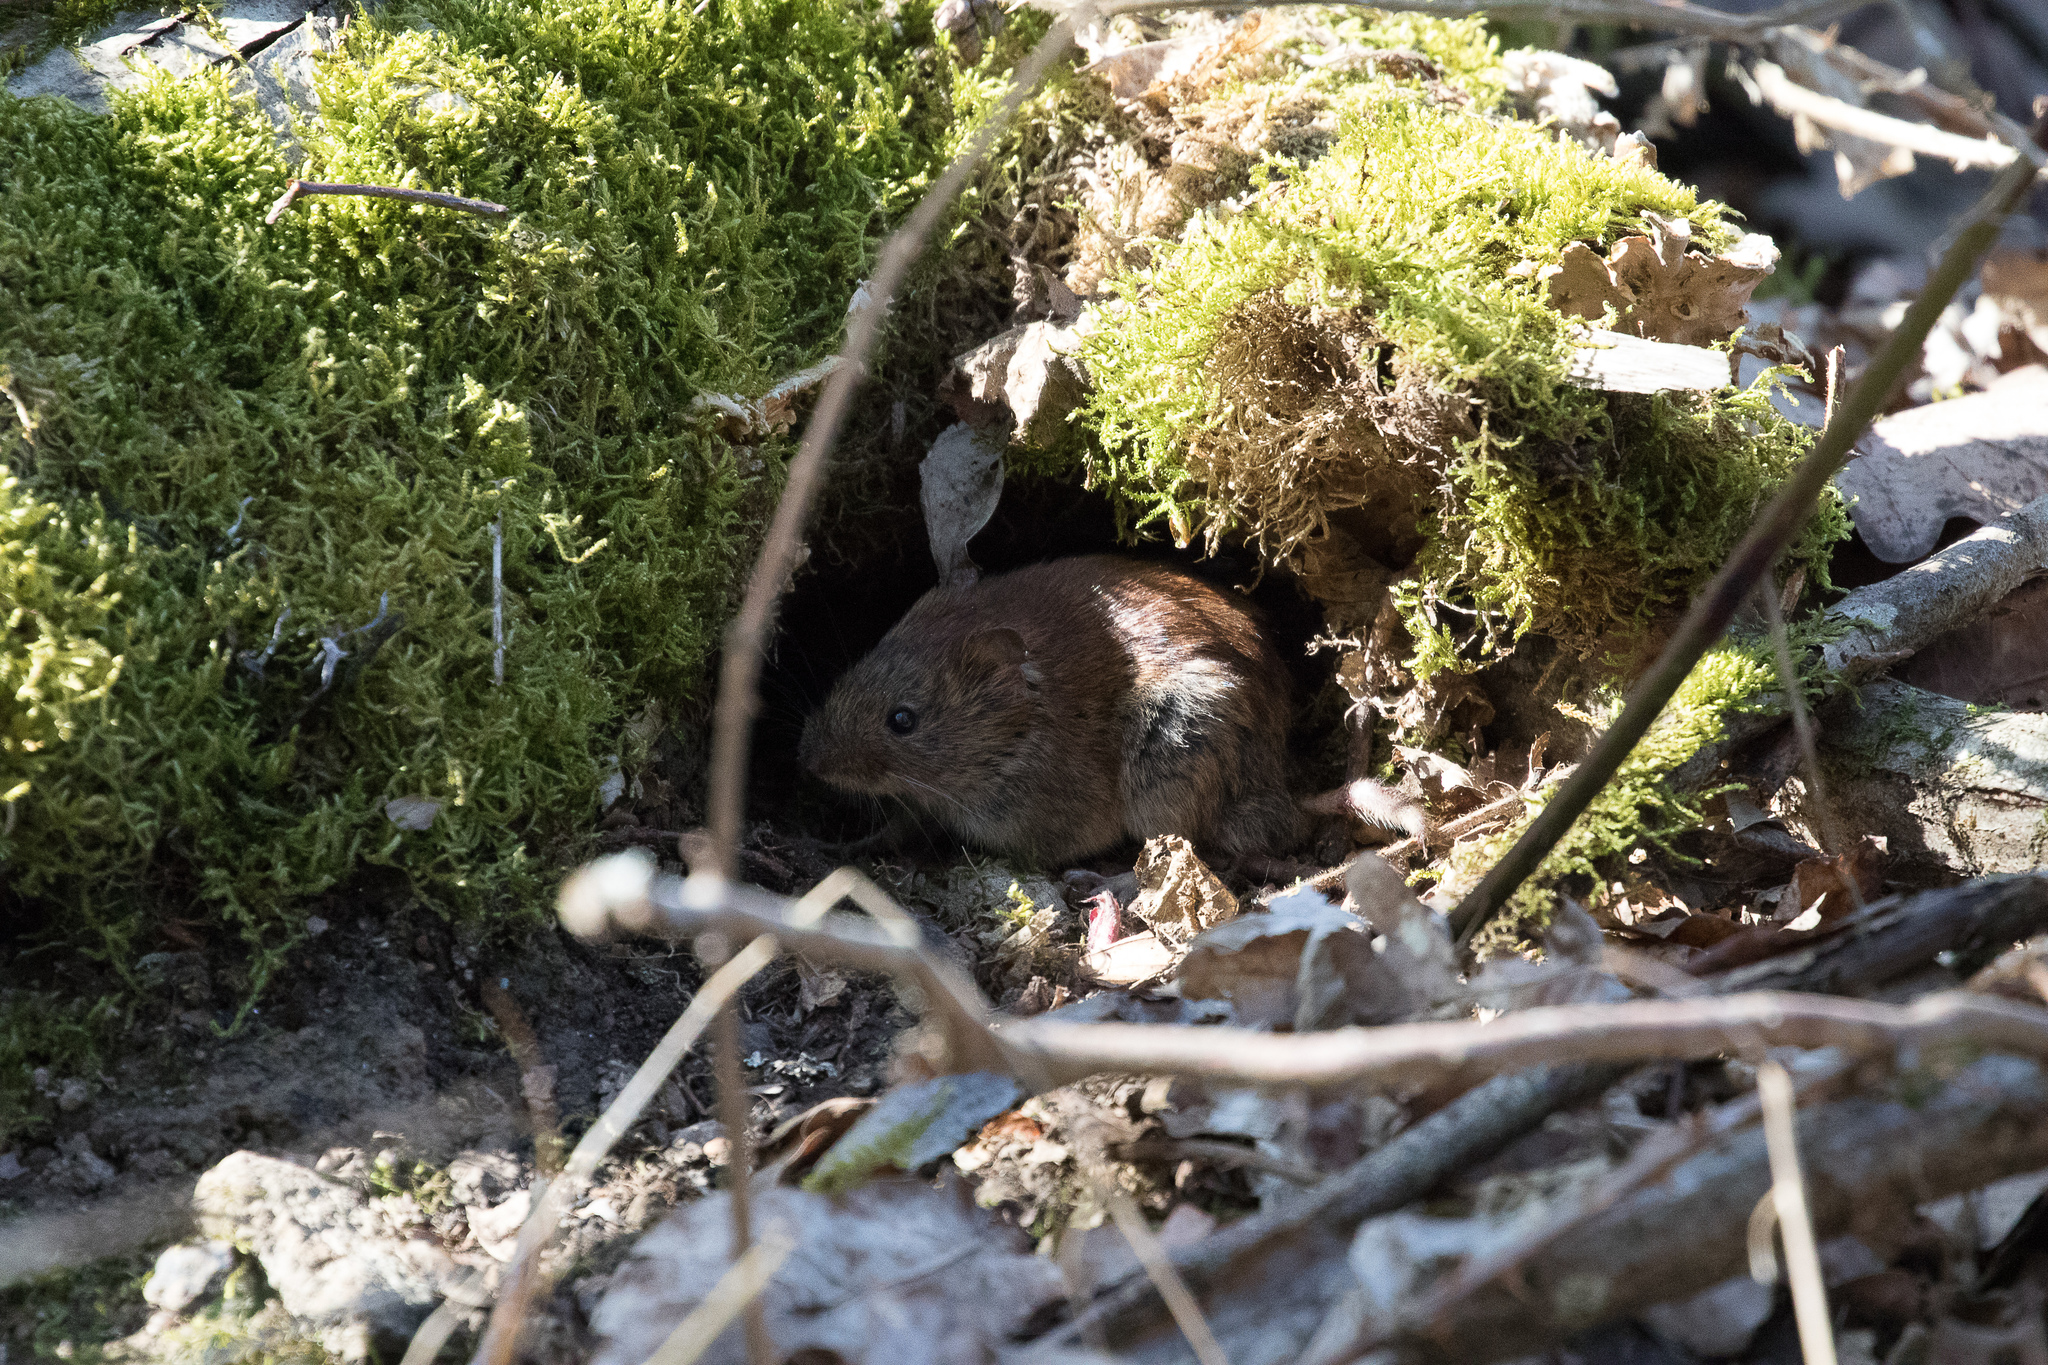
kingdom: Animalia
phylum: Chordata
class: Mammalia
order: Rodentia
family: Cricetidae
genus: Myodes
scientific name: Myodes glareolus
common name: Bank vole
